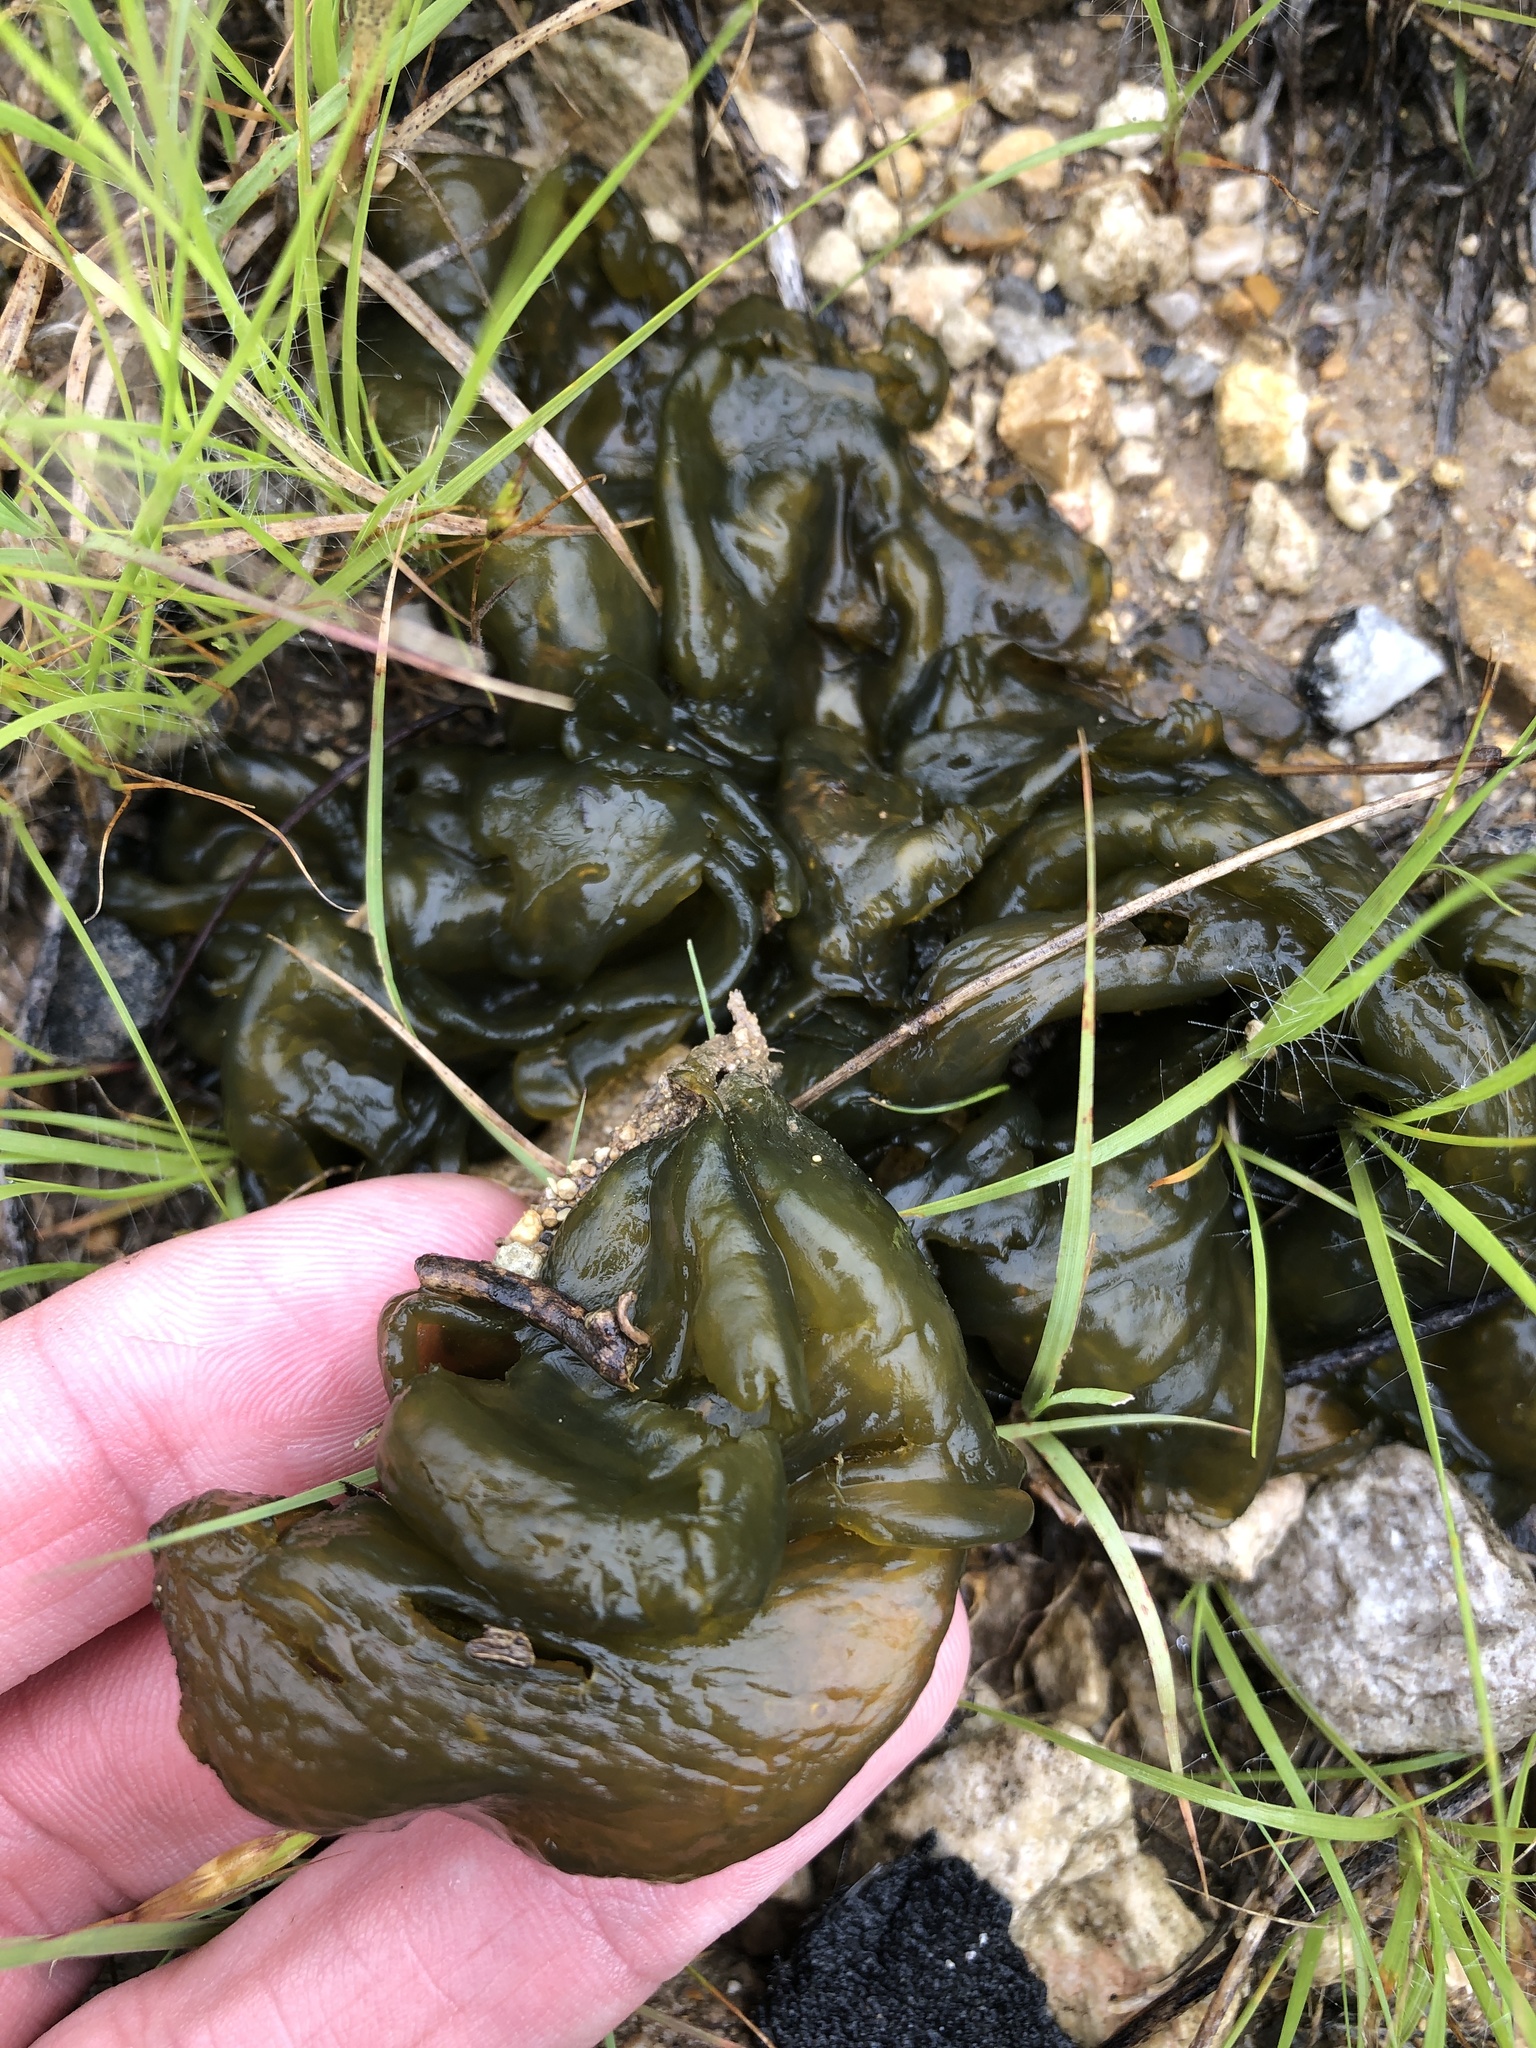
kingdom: Bacteria
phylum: Cyanobacteria
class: Cyanobacteriia
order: Cyanobacteriales
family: Nostocaceae
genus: Nostoc
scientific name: Nostoc commune
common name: Star jelly
